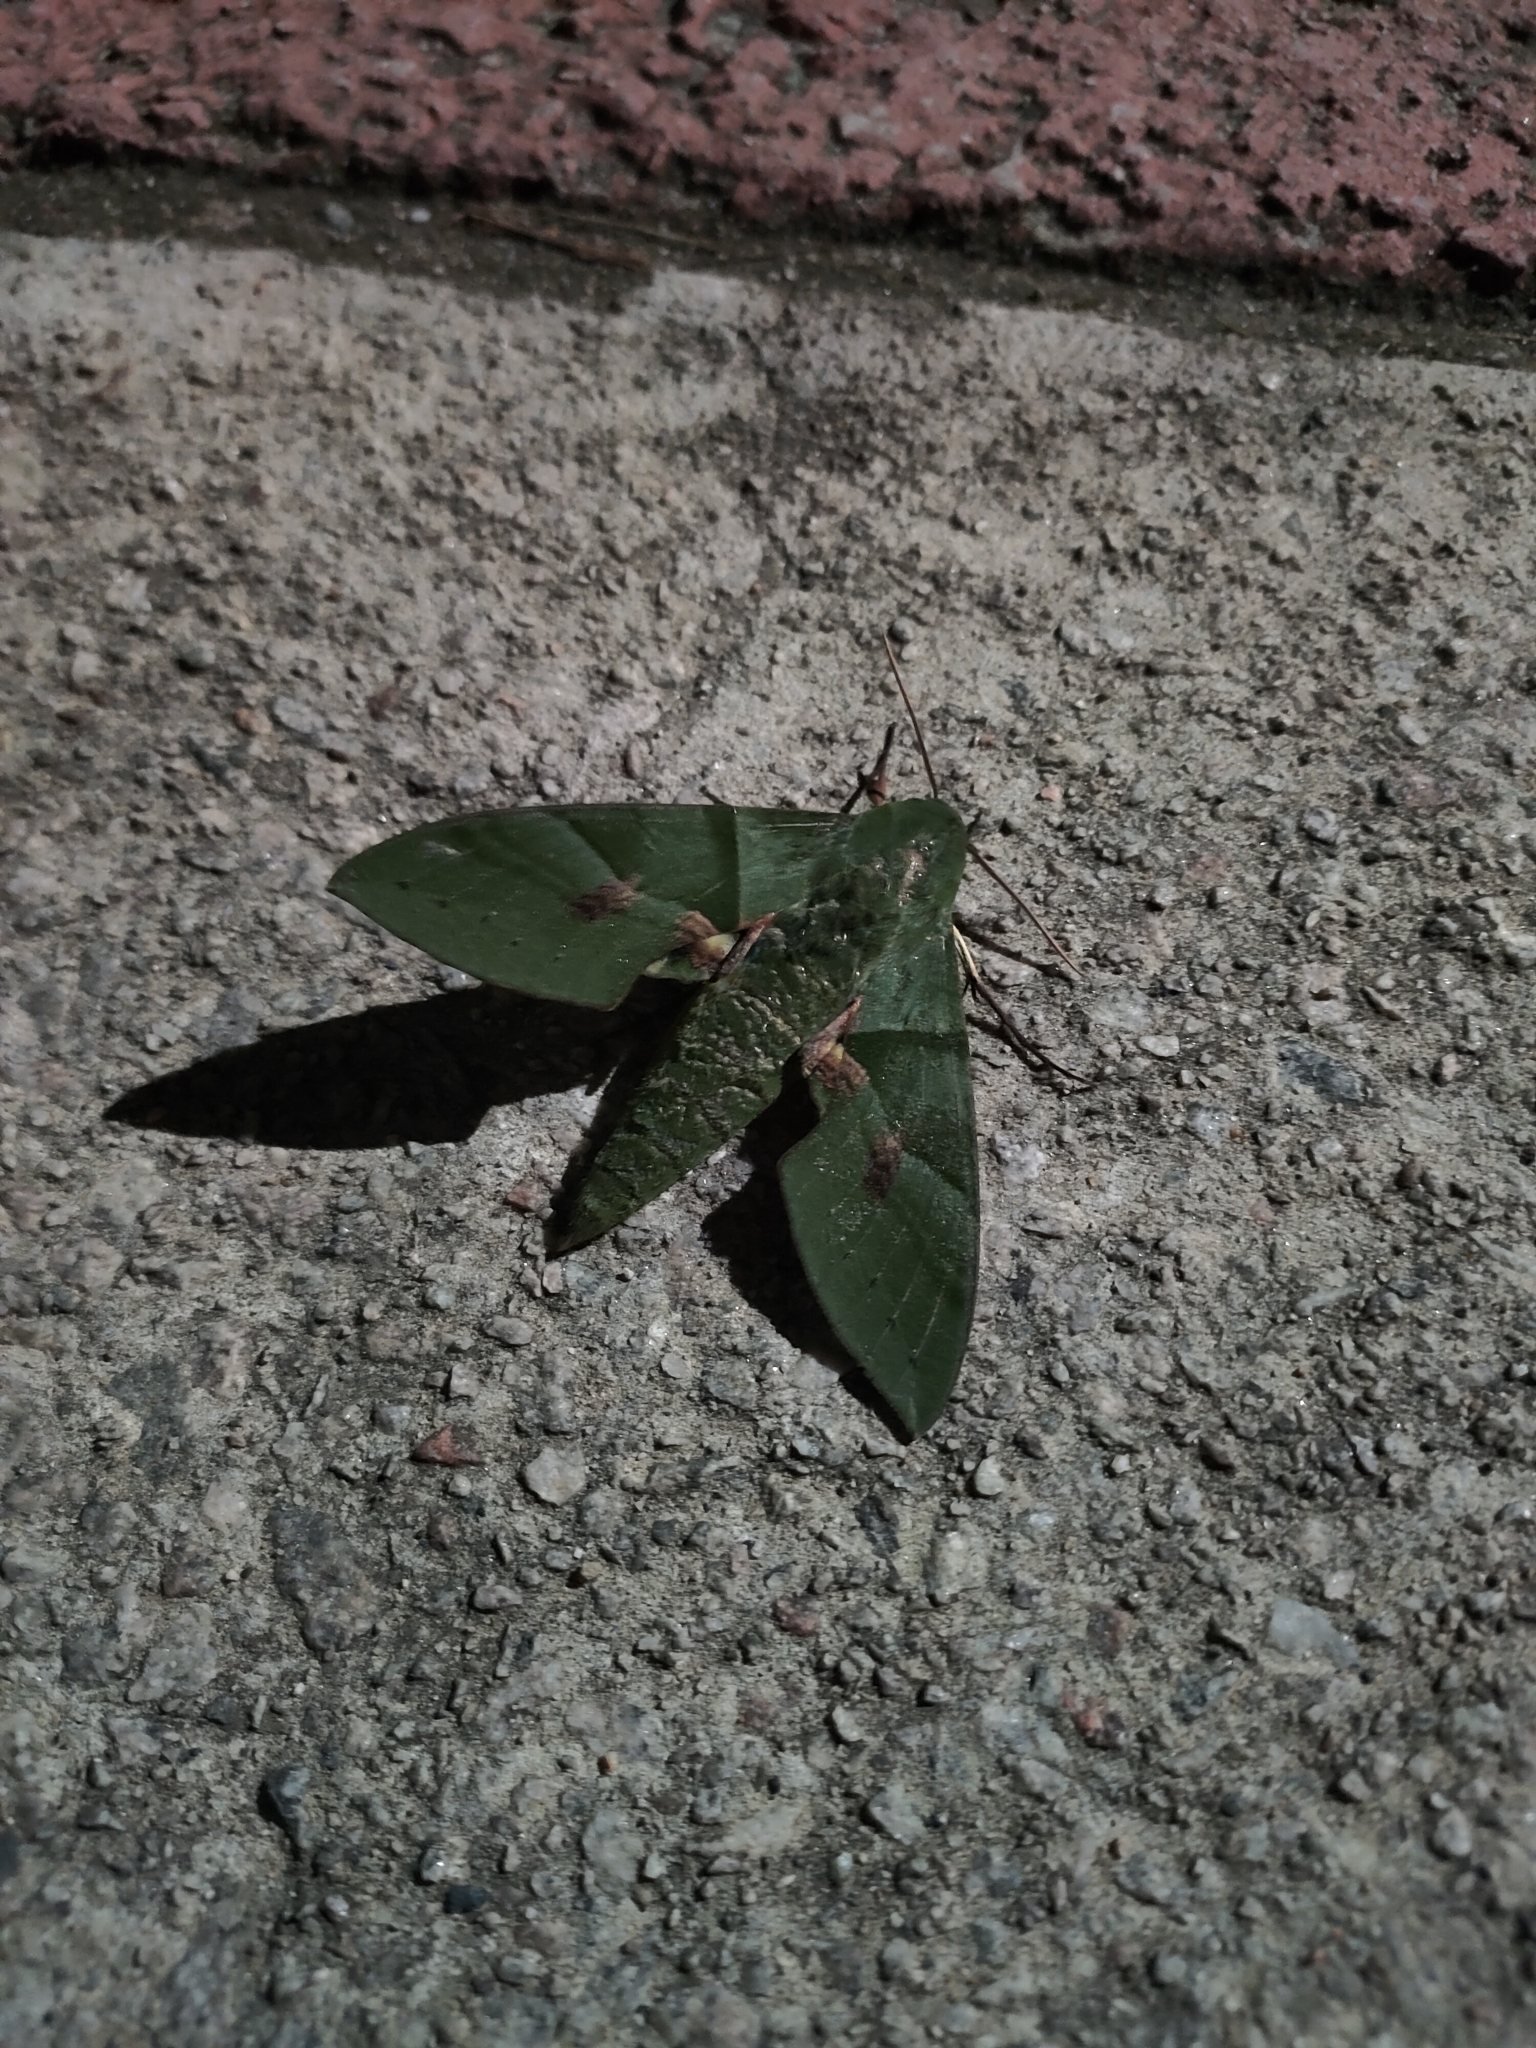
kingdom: Animalia
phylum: Arthropoda
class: Insecta
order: Lepidoptera
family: Sphingidae
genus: Eumorpha
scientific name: Eumorpha labruscae
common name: Gaudy sphinx
